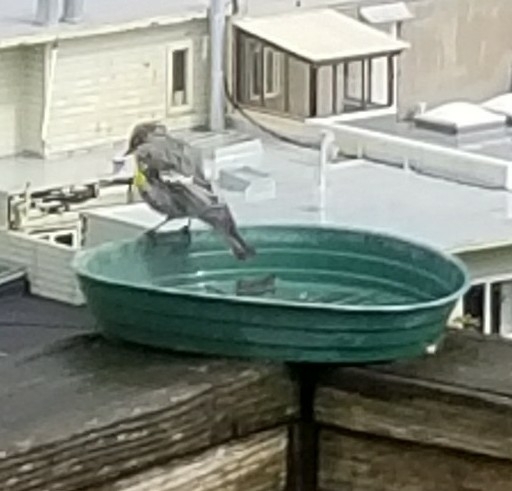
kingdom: Animalia
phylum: Chordata
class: Aves
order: Passeriformes
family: Parulidae
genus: Setophaga
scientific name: Setophaga coronata
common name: Myrtle warbler
